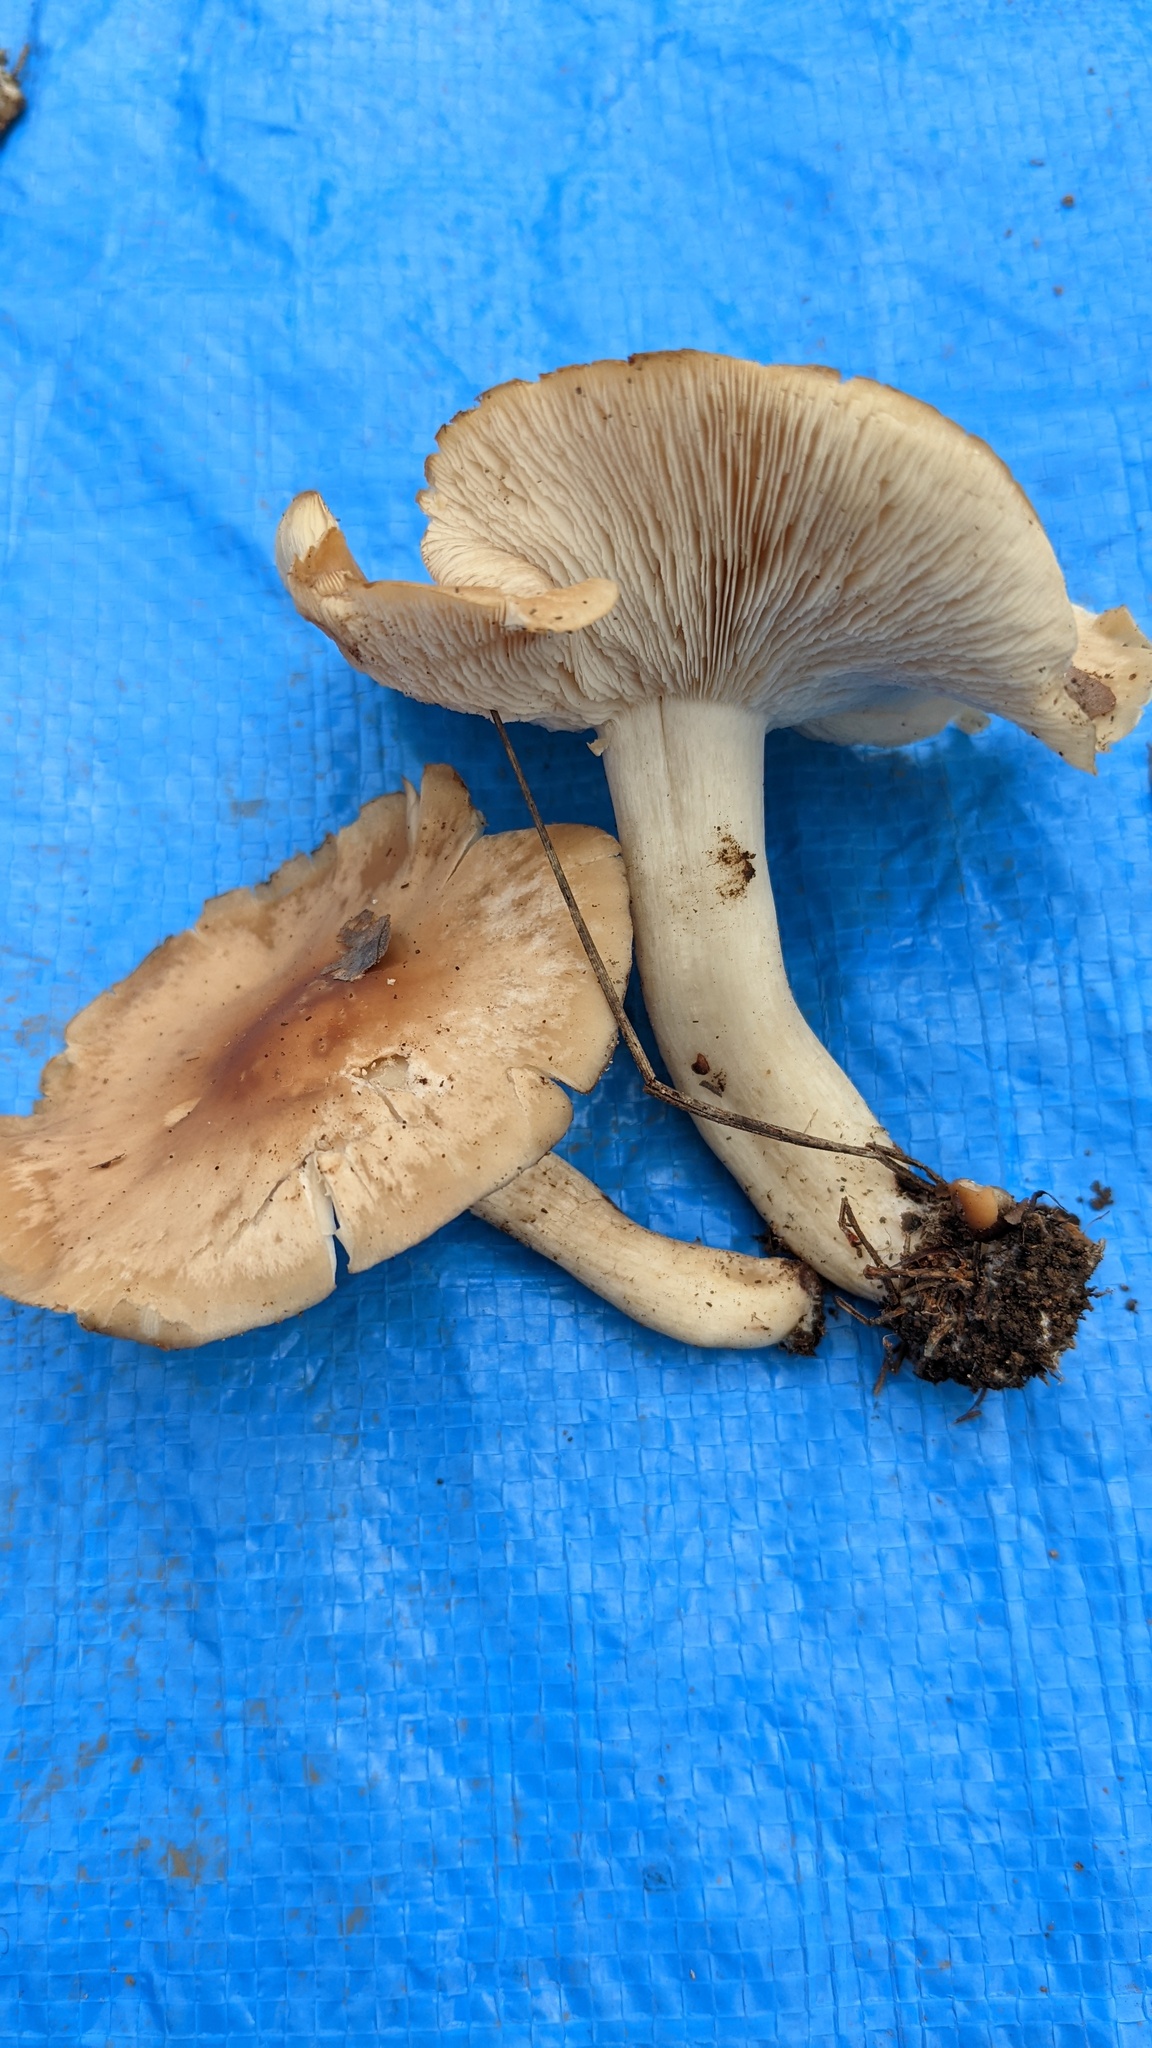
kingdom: Fungi
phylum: Basidiomycota
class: Agaricomycetes
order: Agaricales
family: Lyophyllaceae
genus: Gerhardtia
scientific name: Gerhardtia foliicola
